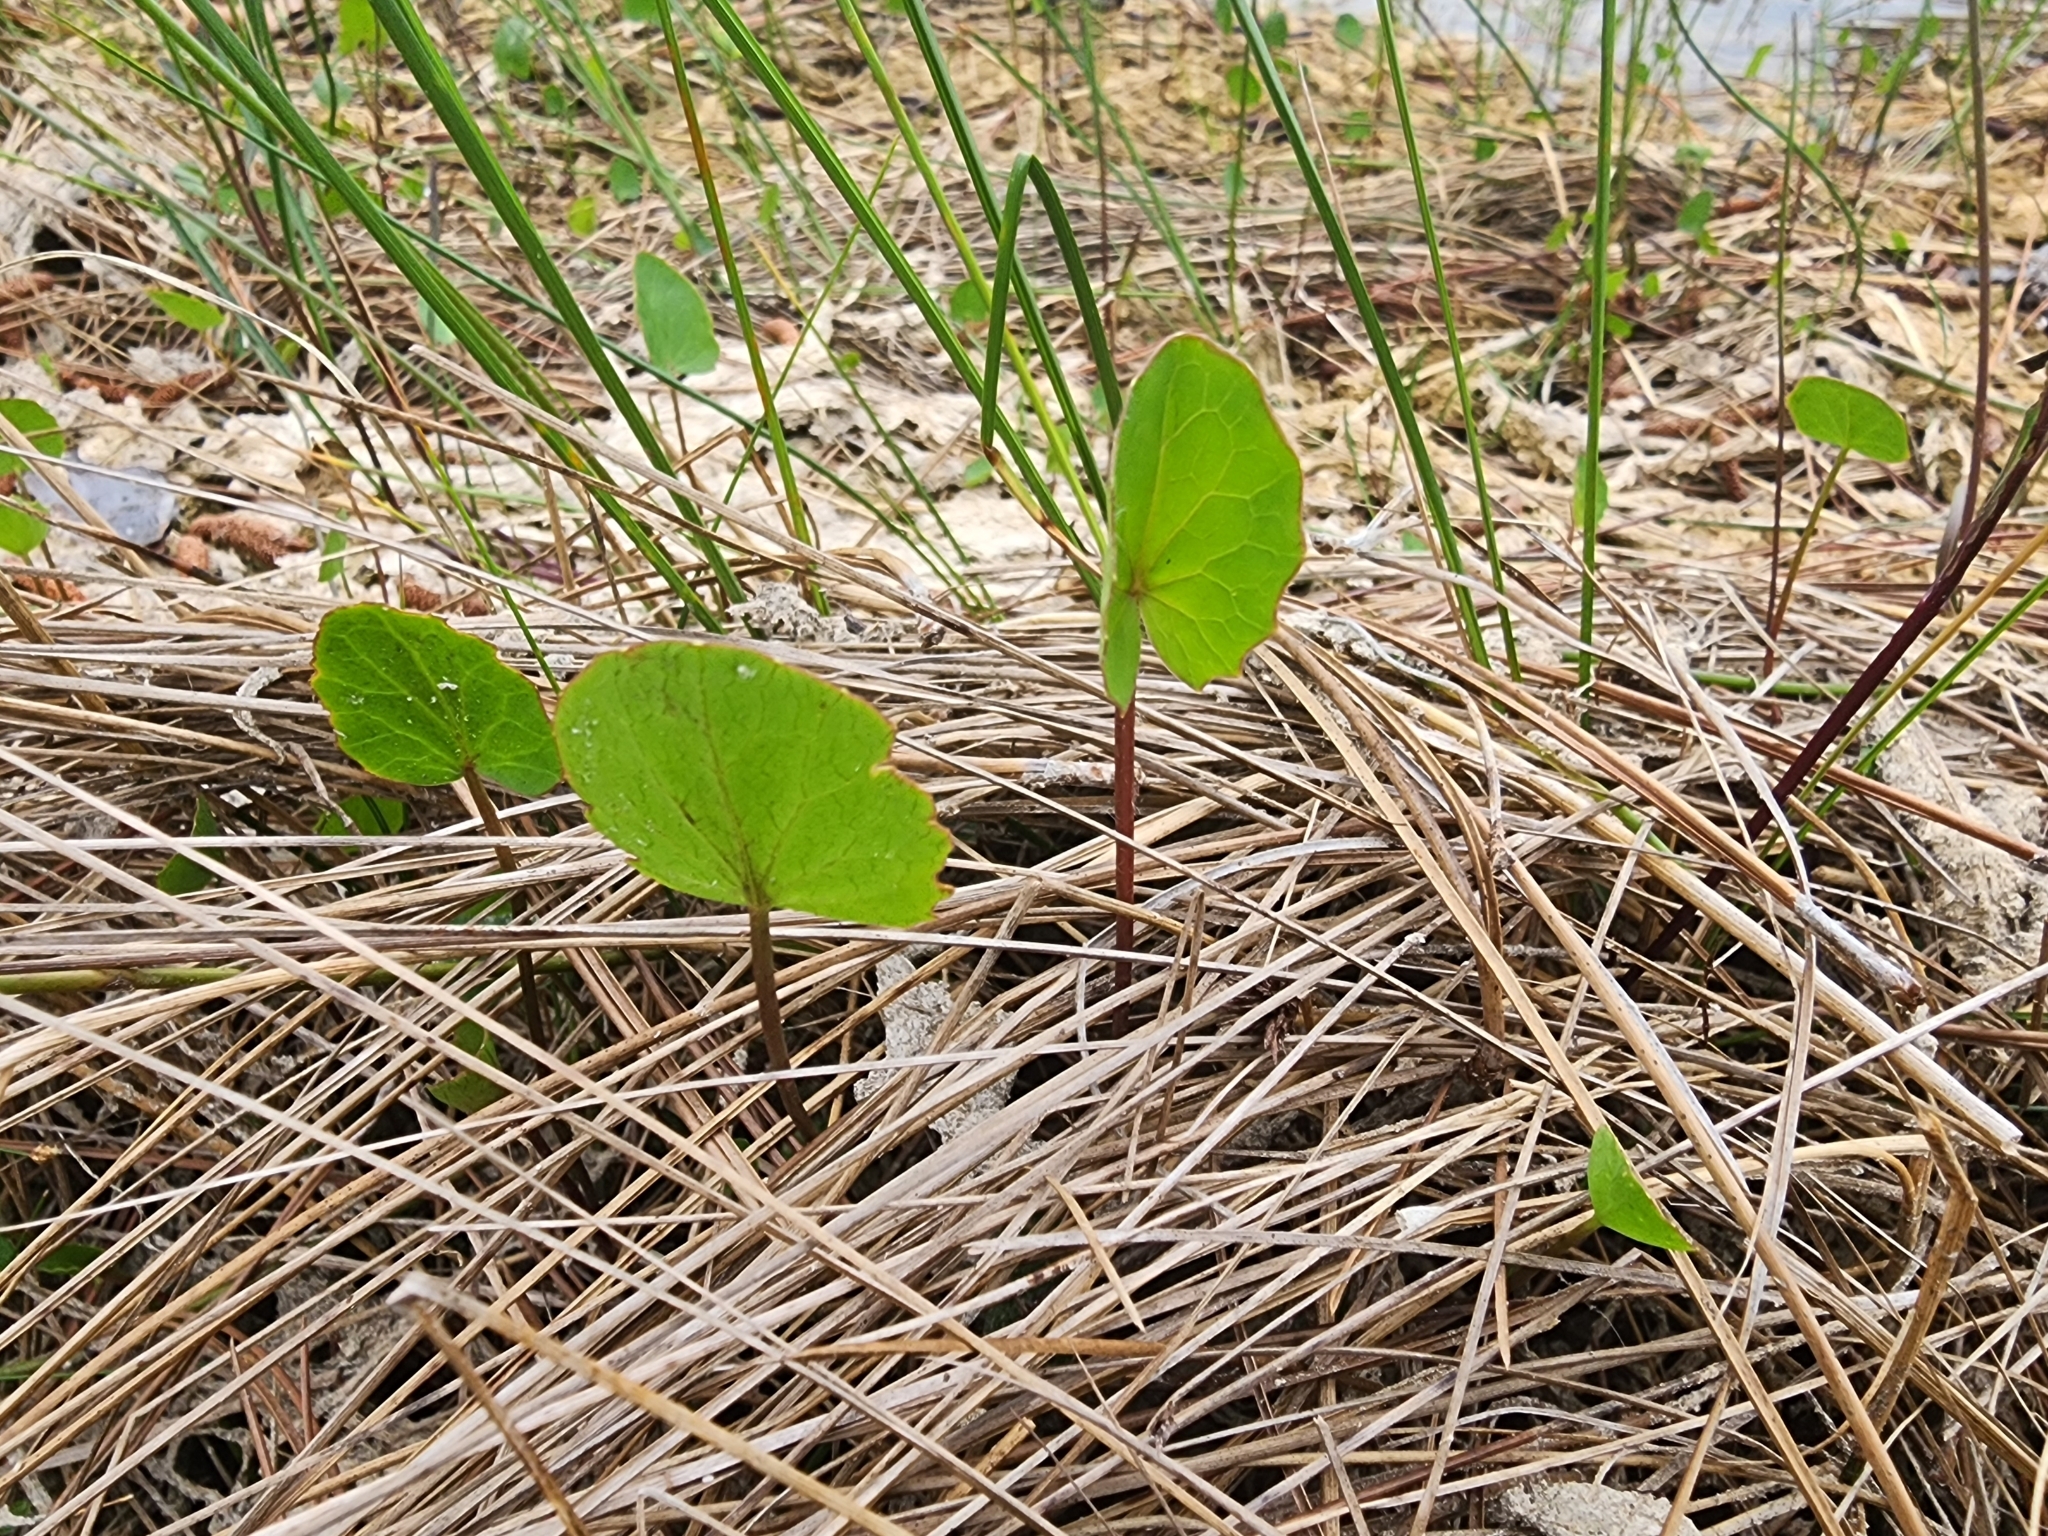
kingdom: Plantae
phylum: Tracheophyta
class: Magnoliopsida
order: Apiales
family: Apiaceae
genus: Centella
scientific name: Centella erecta
